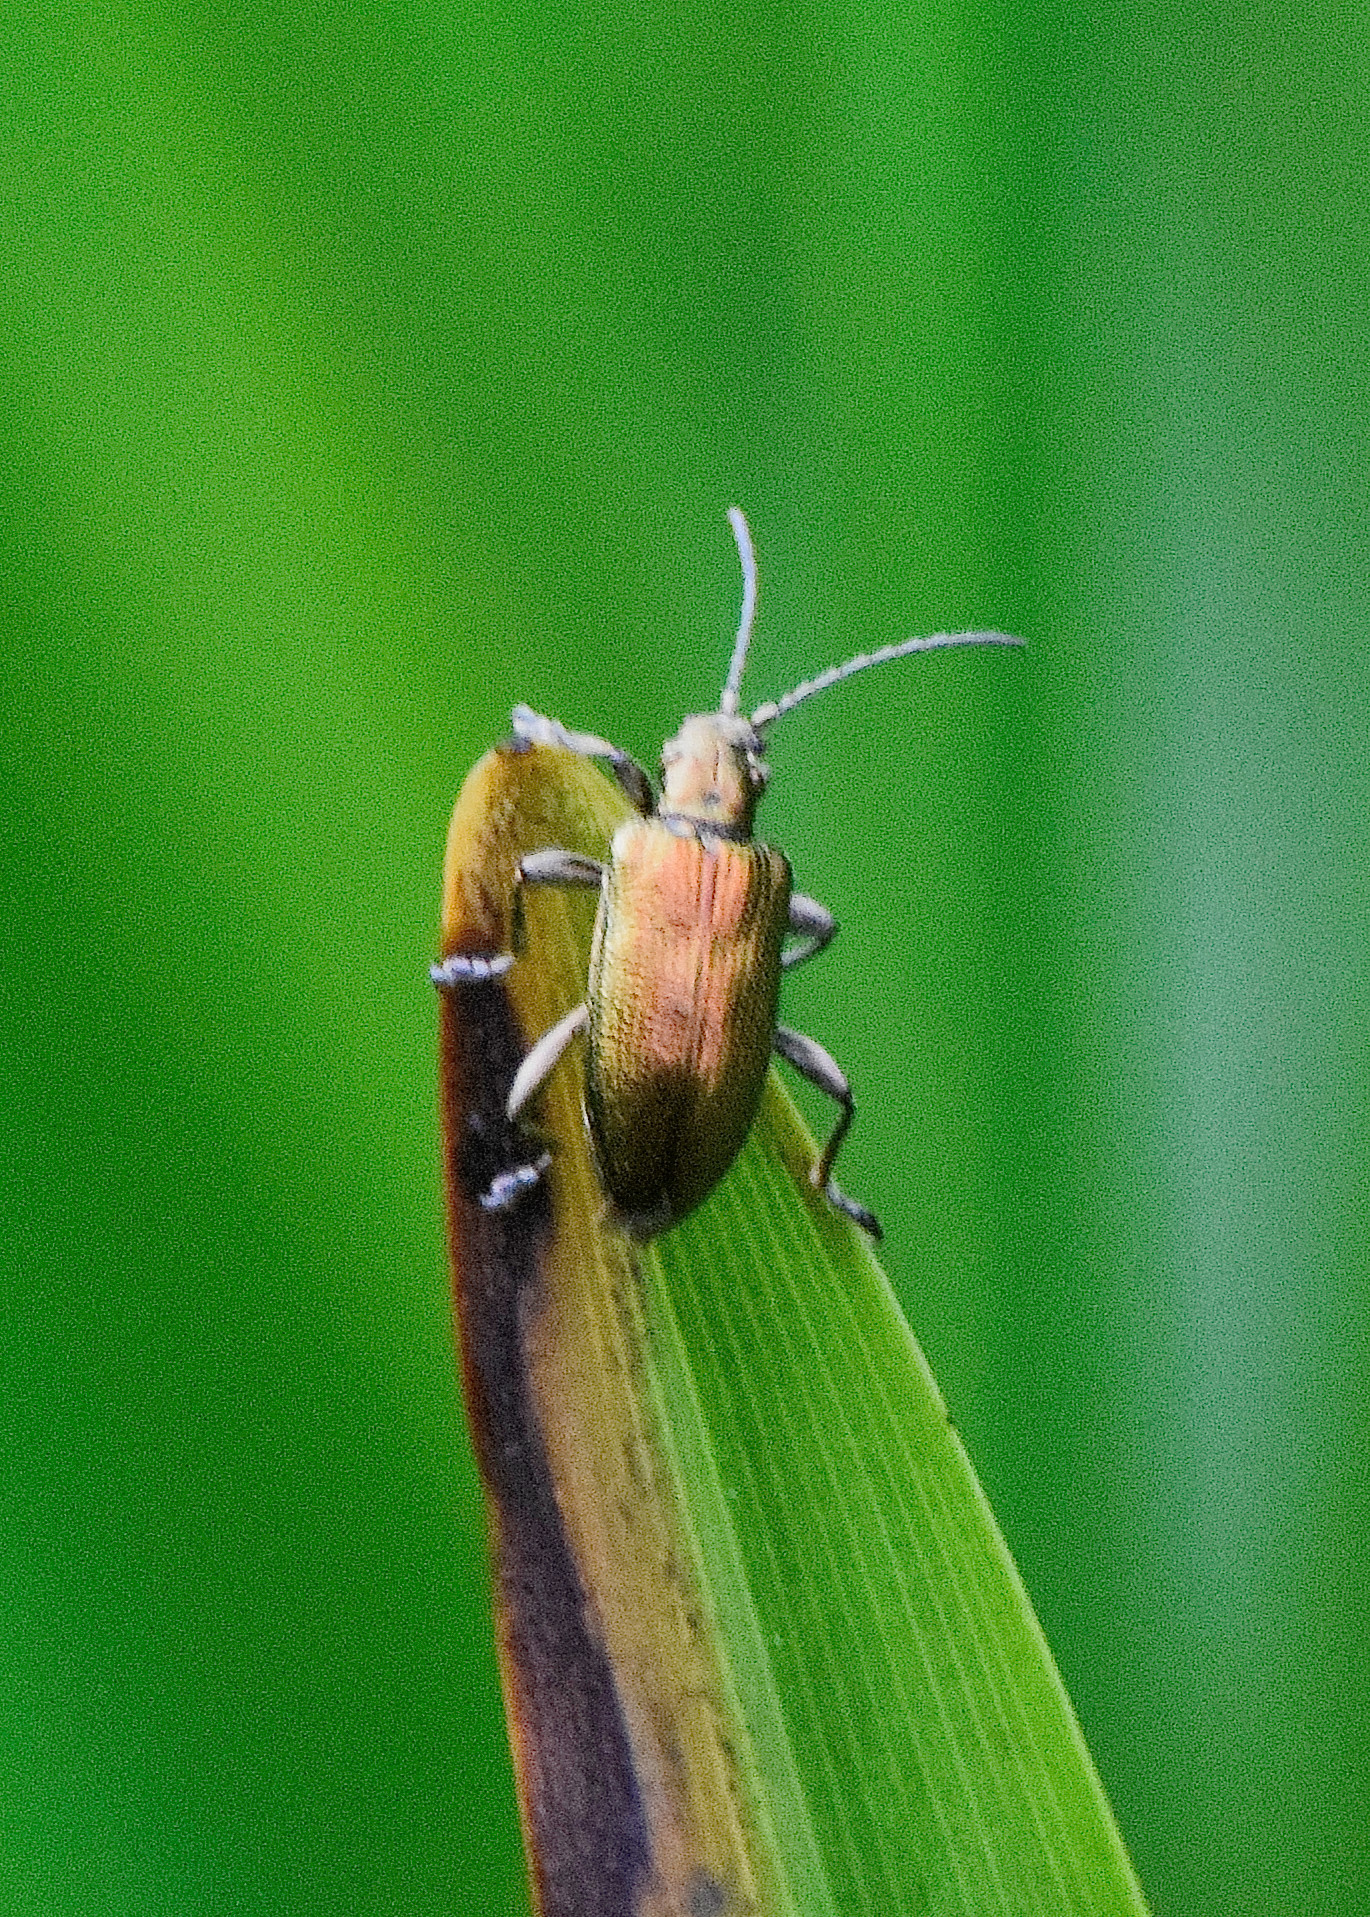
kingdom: Animalia
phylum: Arthropoda
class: Insecta
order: Coleoptera
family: Chrysomelidae
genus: Donacia
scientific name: Donacia semicuprea
